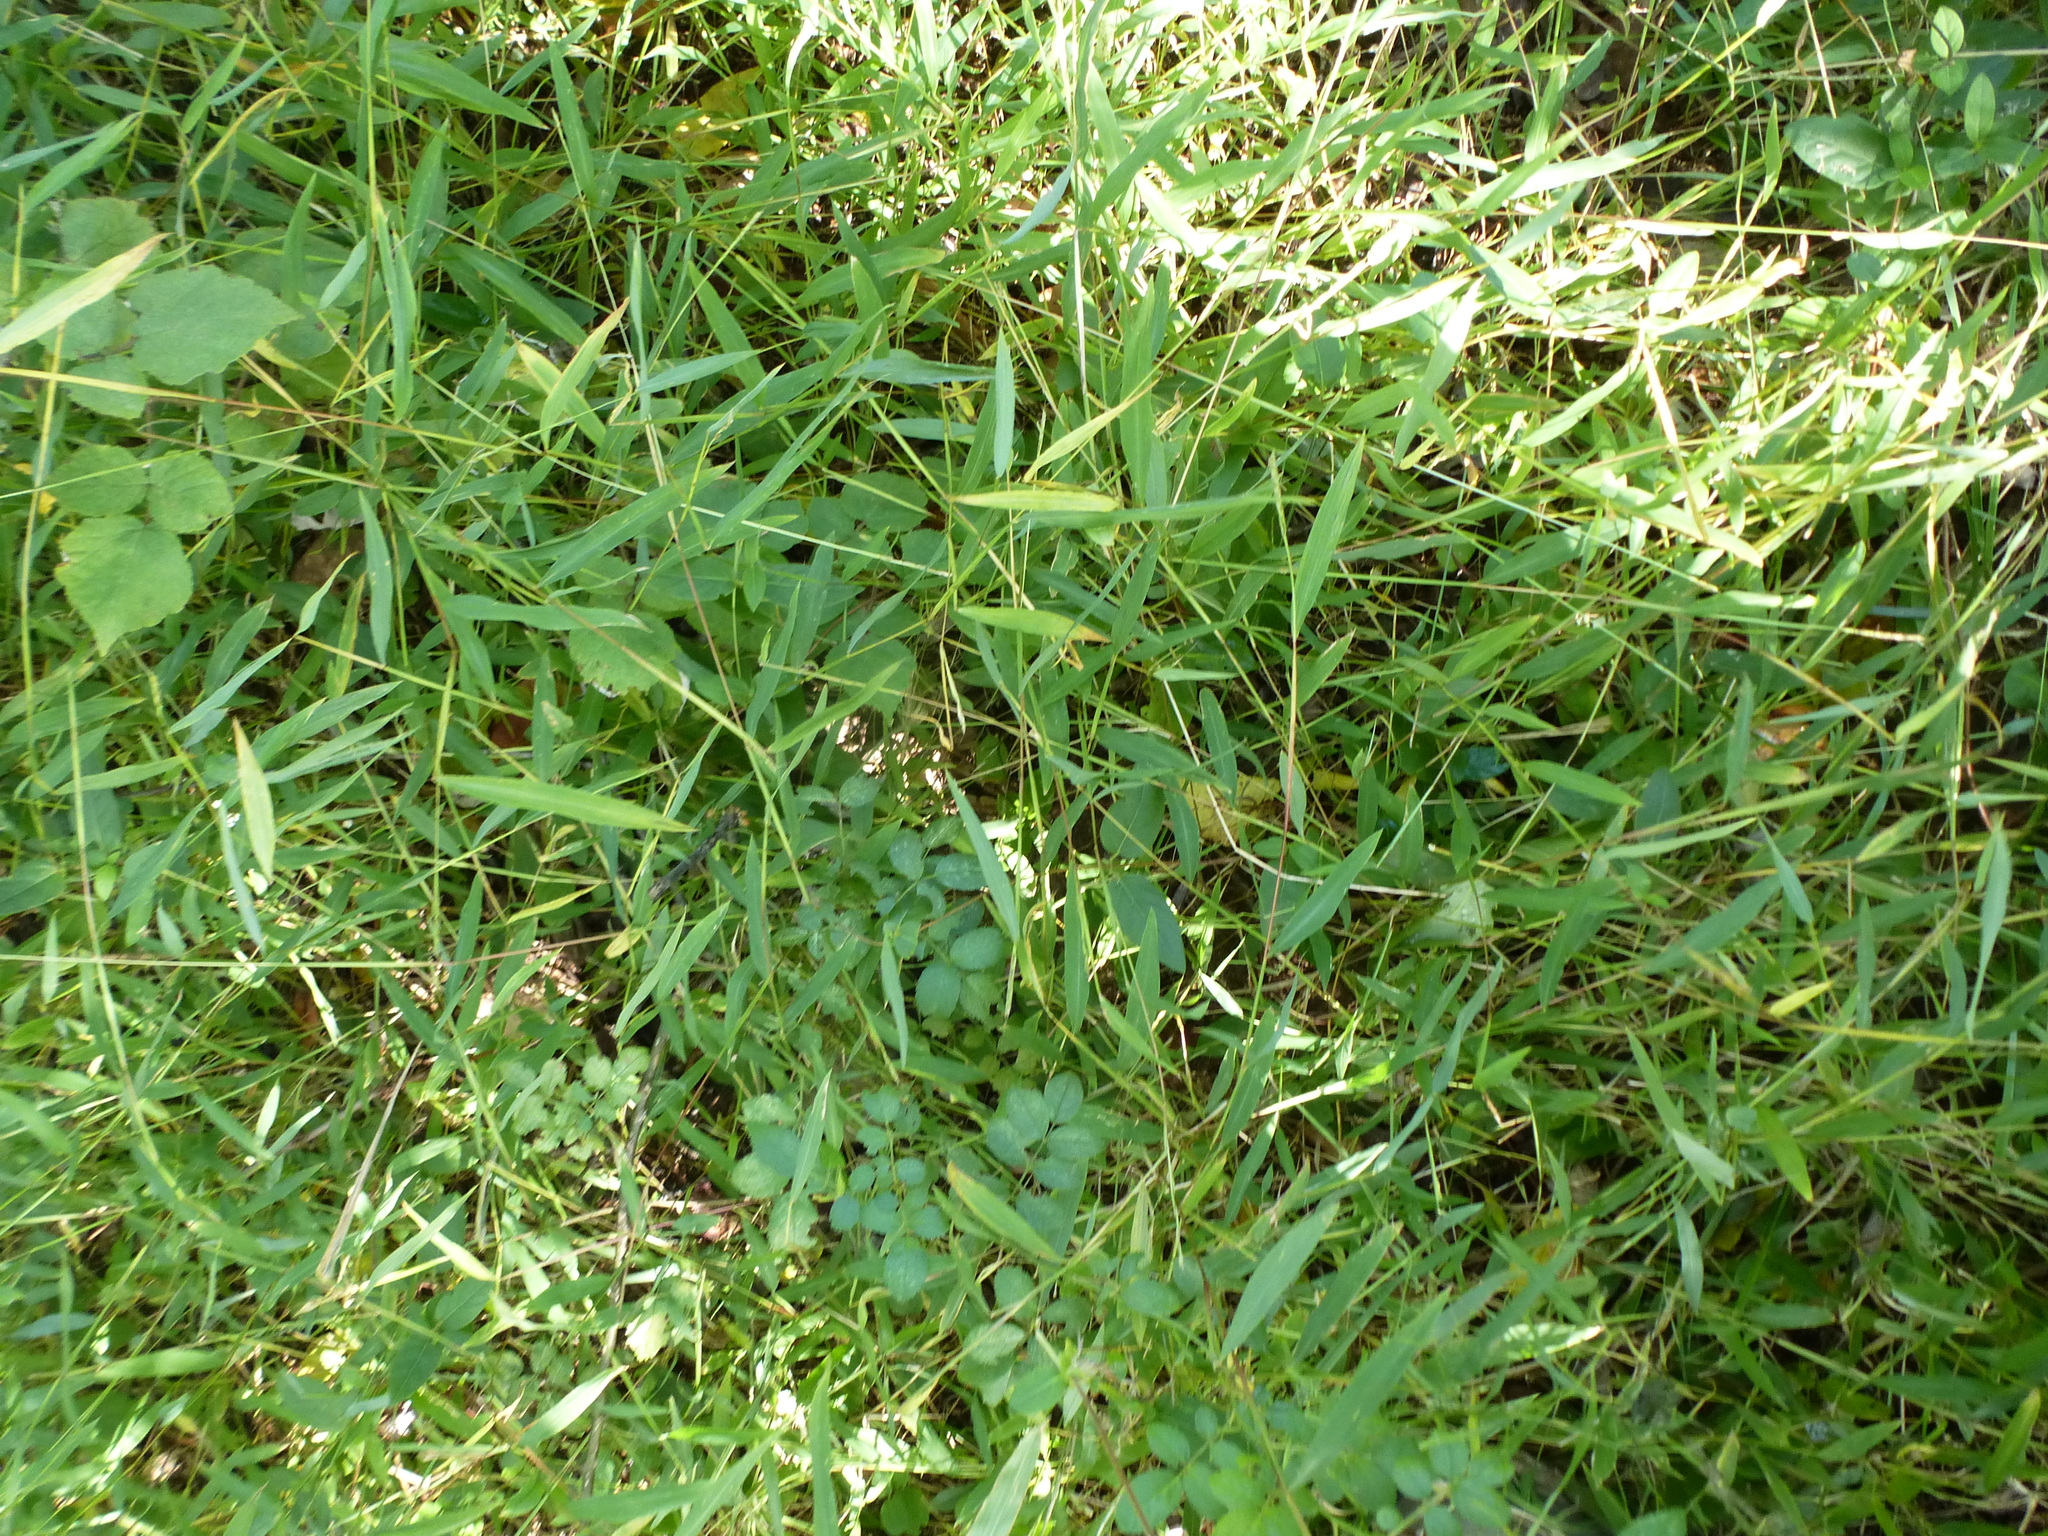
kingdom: Plantae
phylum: Tracheophyta
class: Liliopsida
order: Poales
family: Poaceae
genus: Microstegium
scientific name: Microstegium vimineum
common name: Japanese stiltgrass
